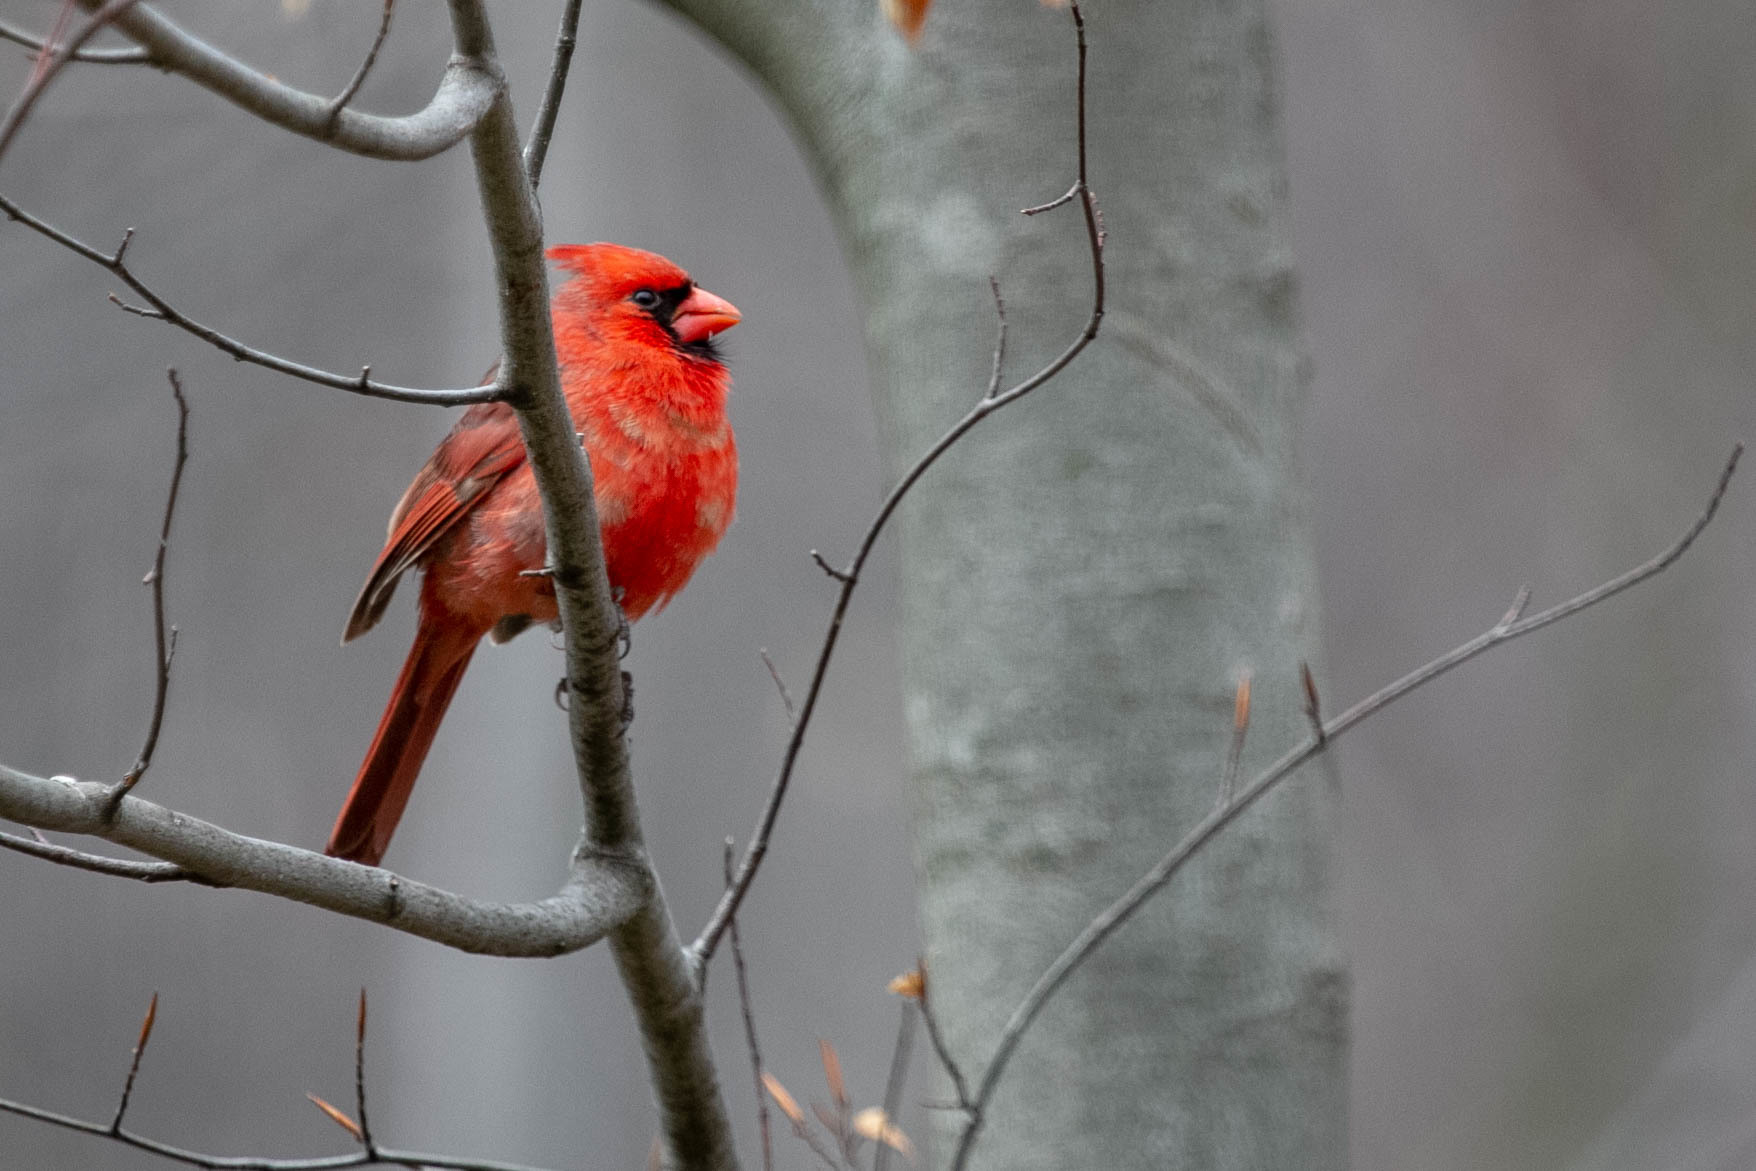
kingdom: Animalia
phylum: Chordata
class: Aves
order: Passeriformes
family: Cardinalidae
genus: Cardinalis
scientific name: Cardinalis cardinalis
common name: Northern cardinal
